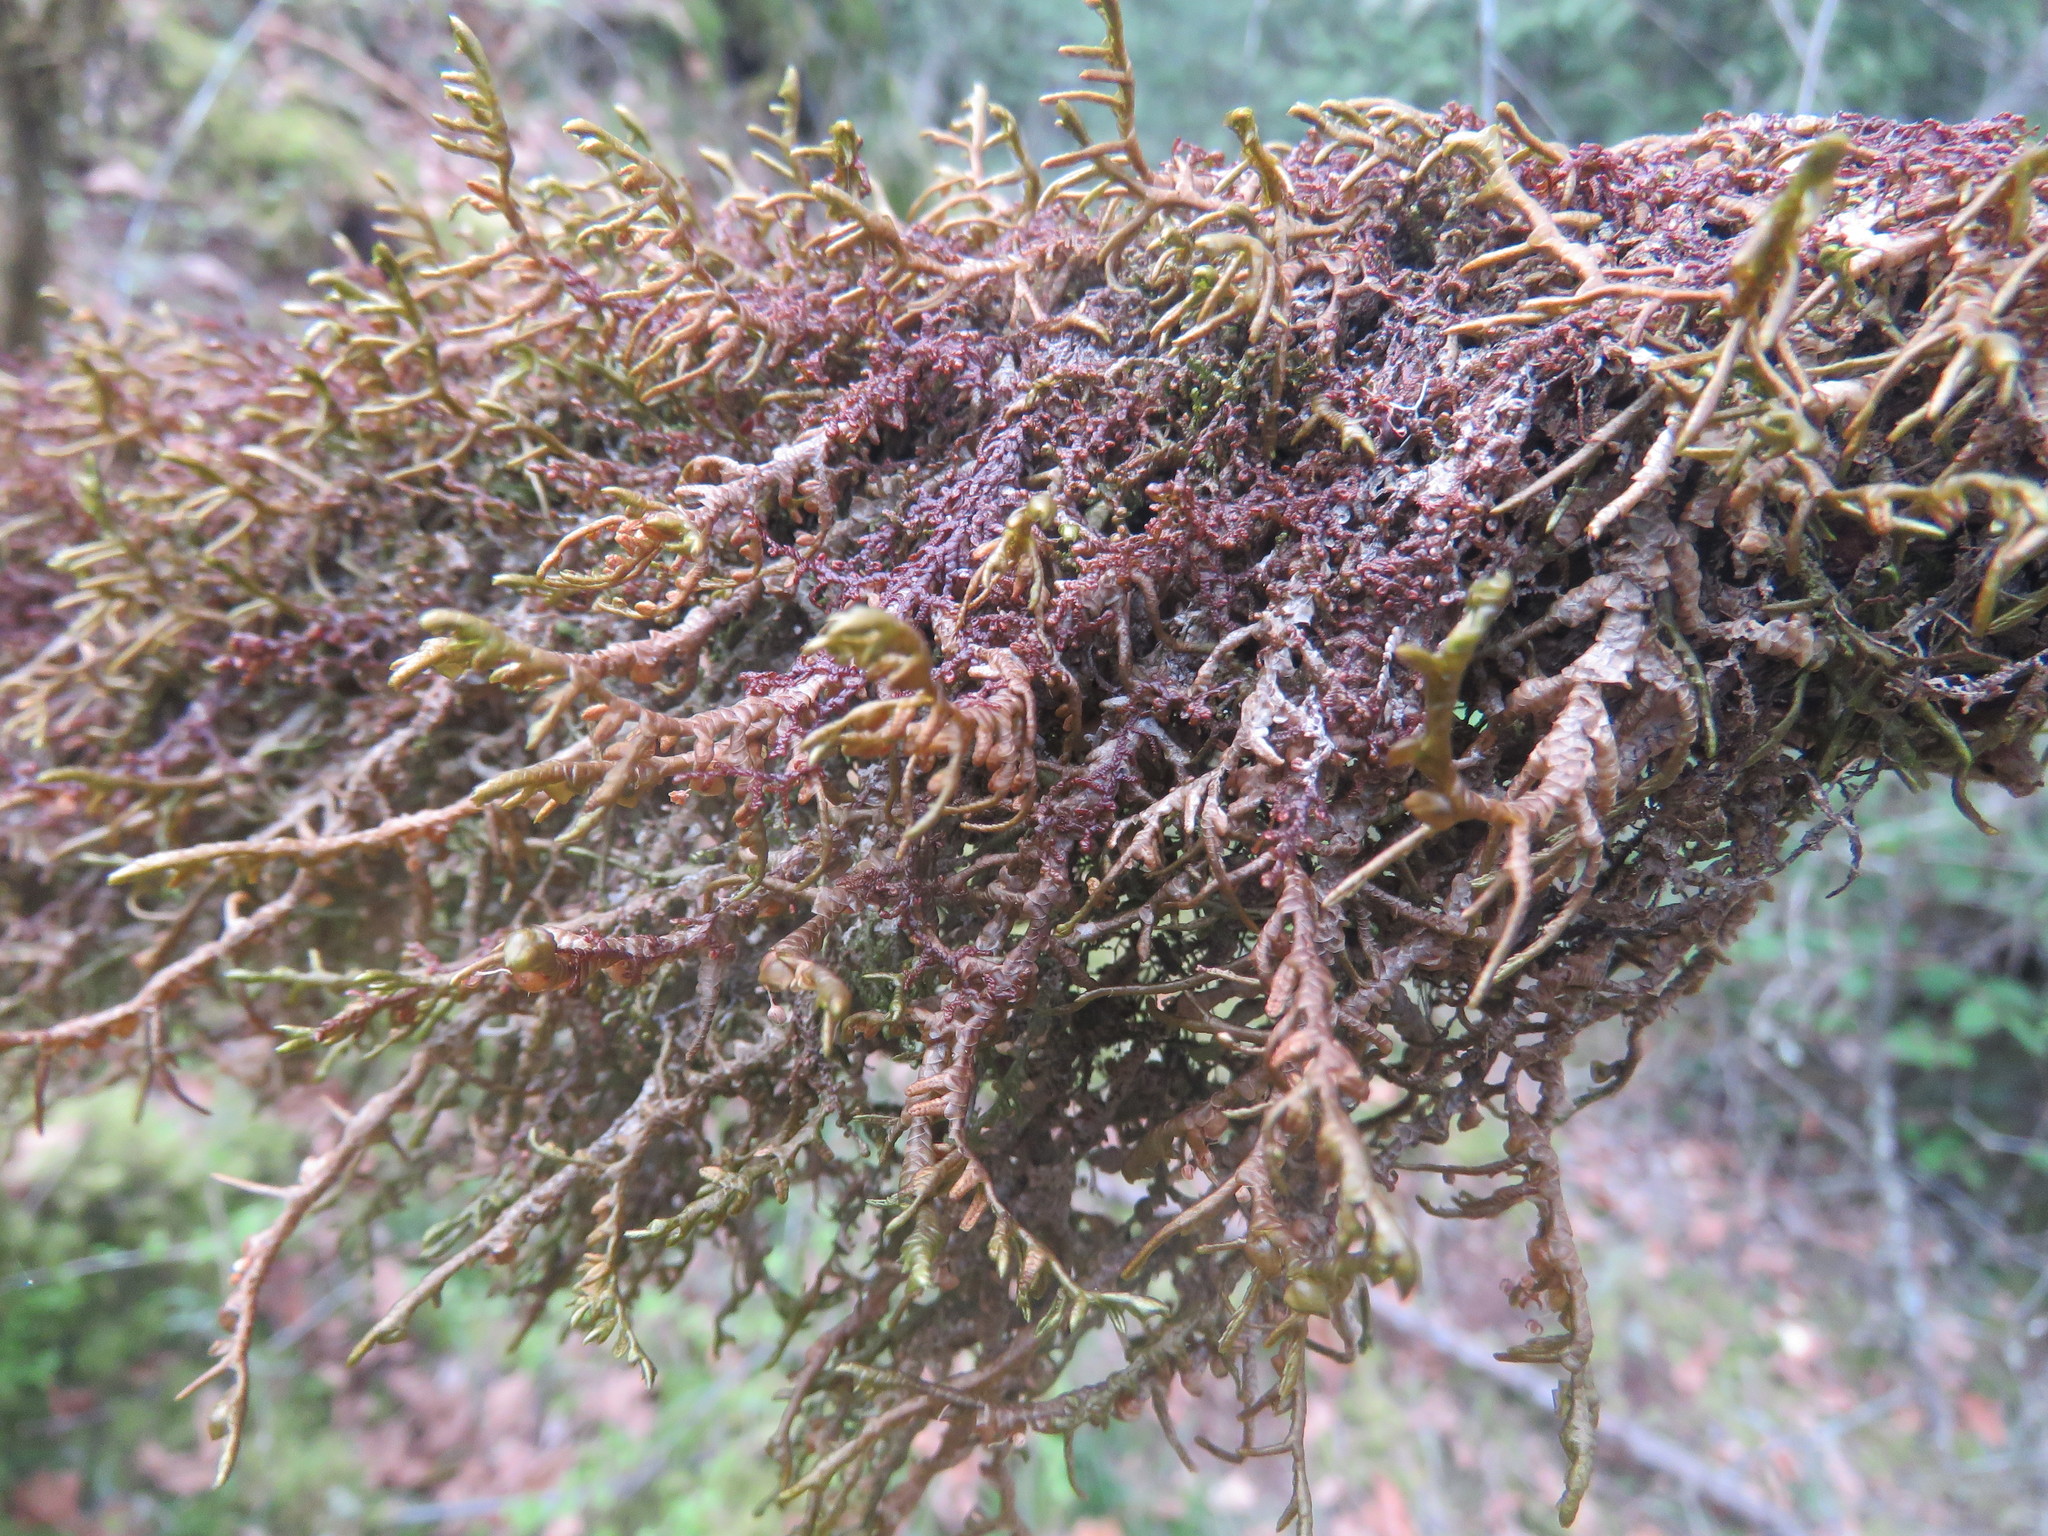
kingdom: Plantae
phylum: Marchantiophyta
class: Jungermanniopsida
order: Porellales
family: Porellaceae
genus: Porella
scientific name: Porella navicularis
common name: Tree ruffle liverwort
